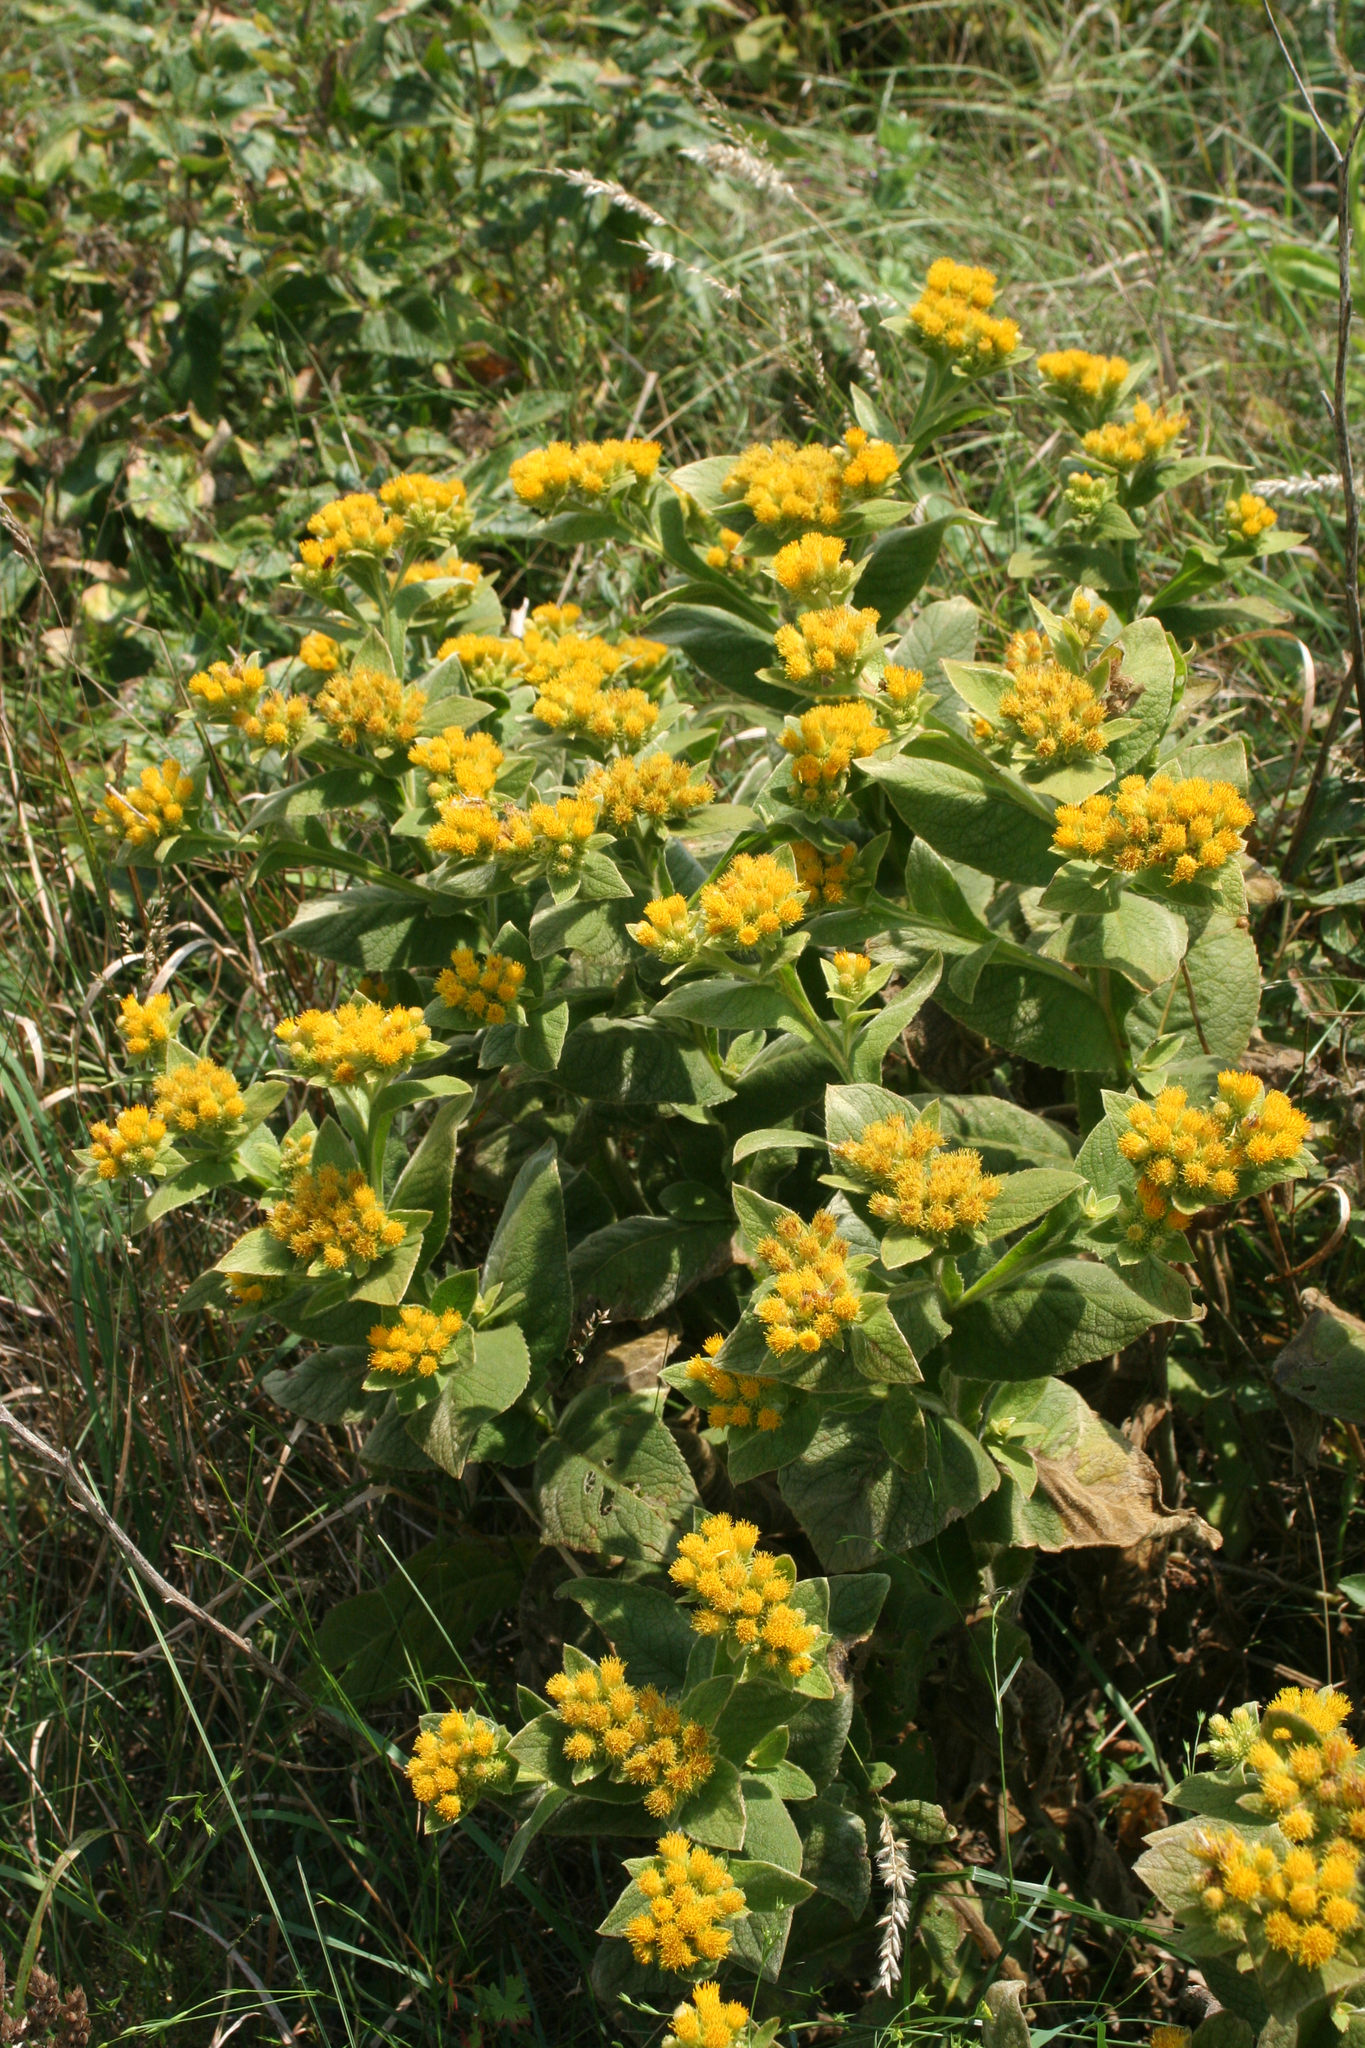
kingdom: Plantae
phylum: Tracheophyta
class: Magnoliopsida
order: Asterales
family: Asteraceae
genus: Inula
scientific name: Inula thapsoides
